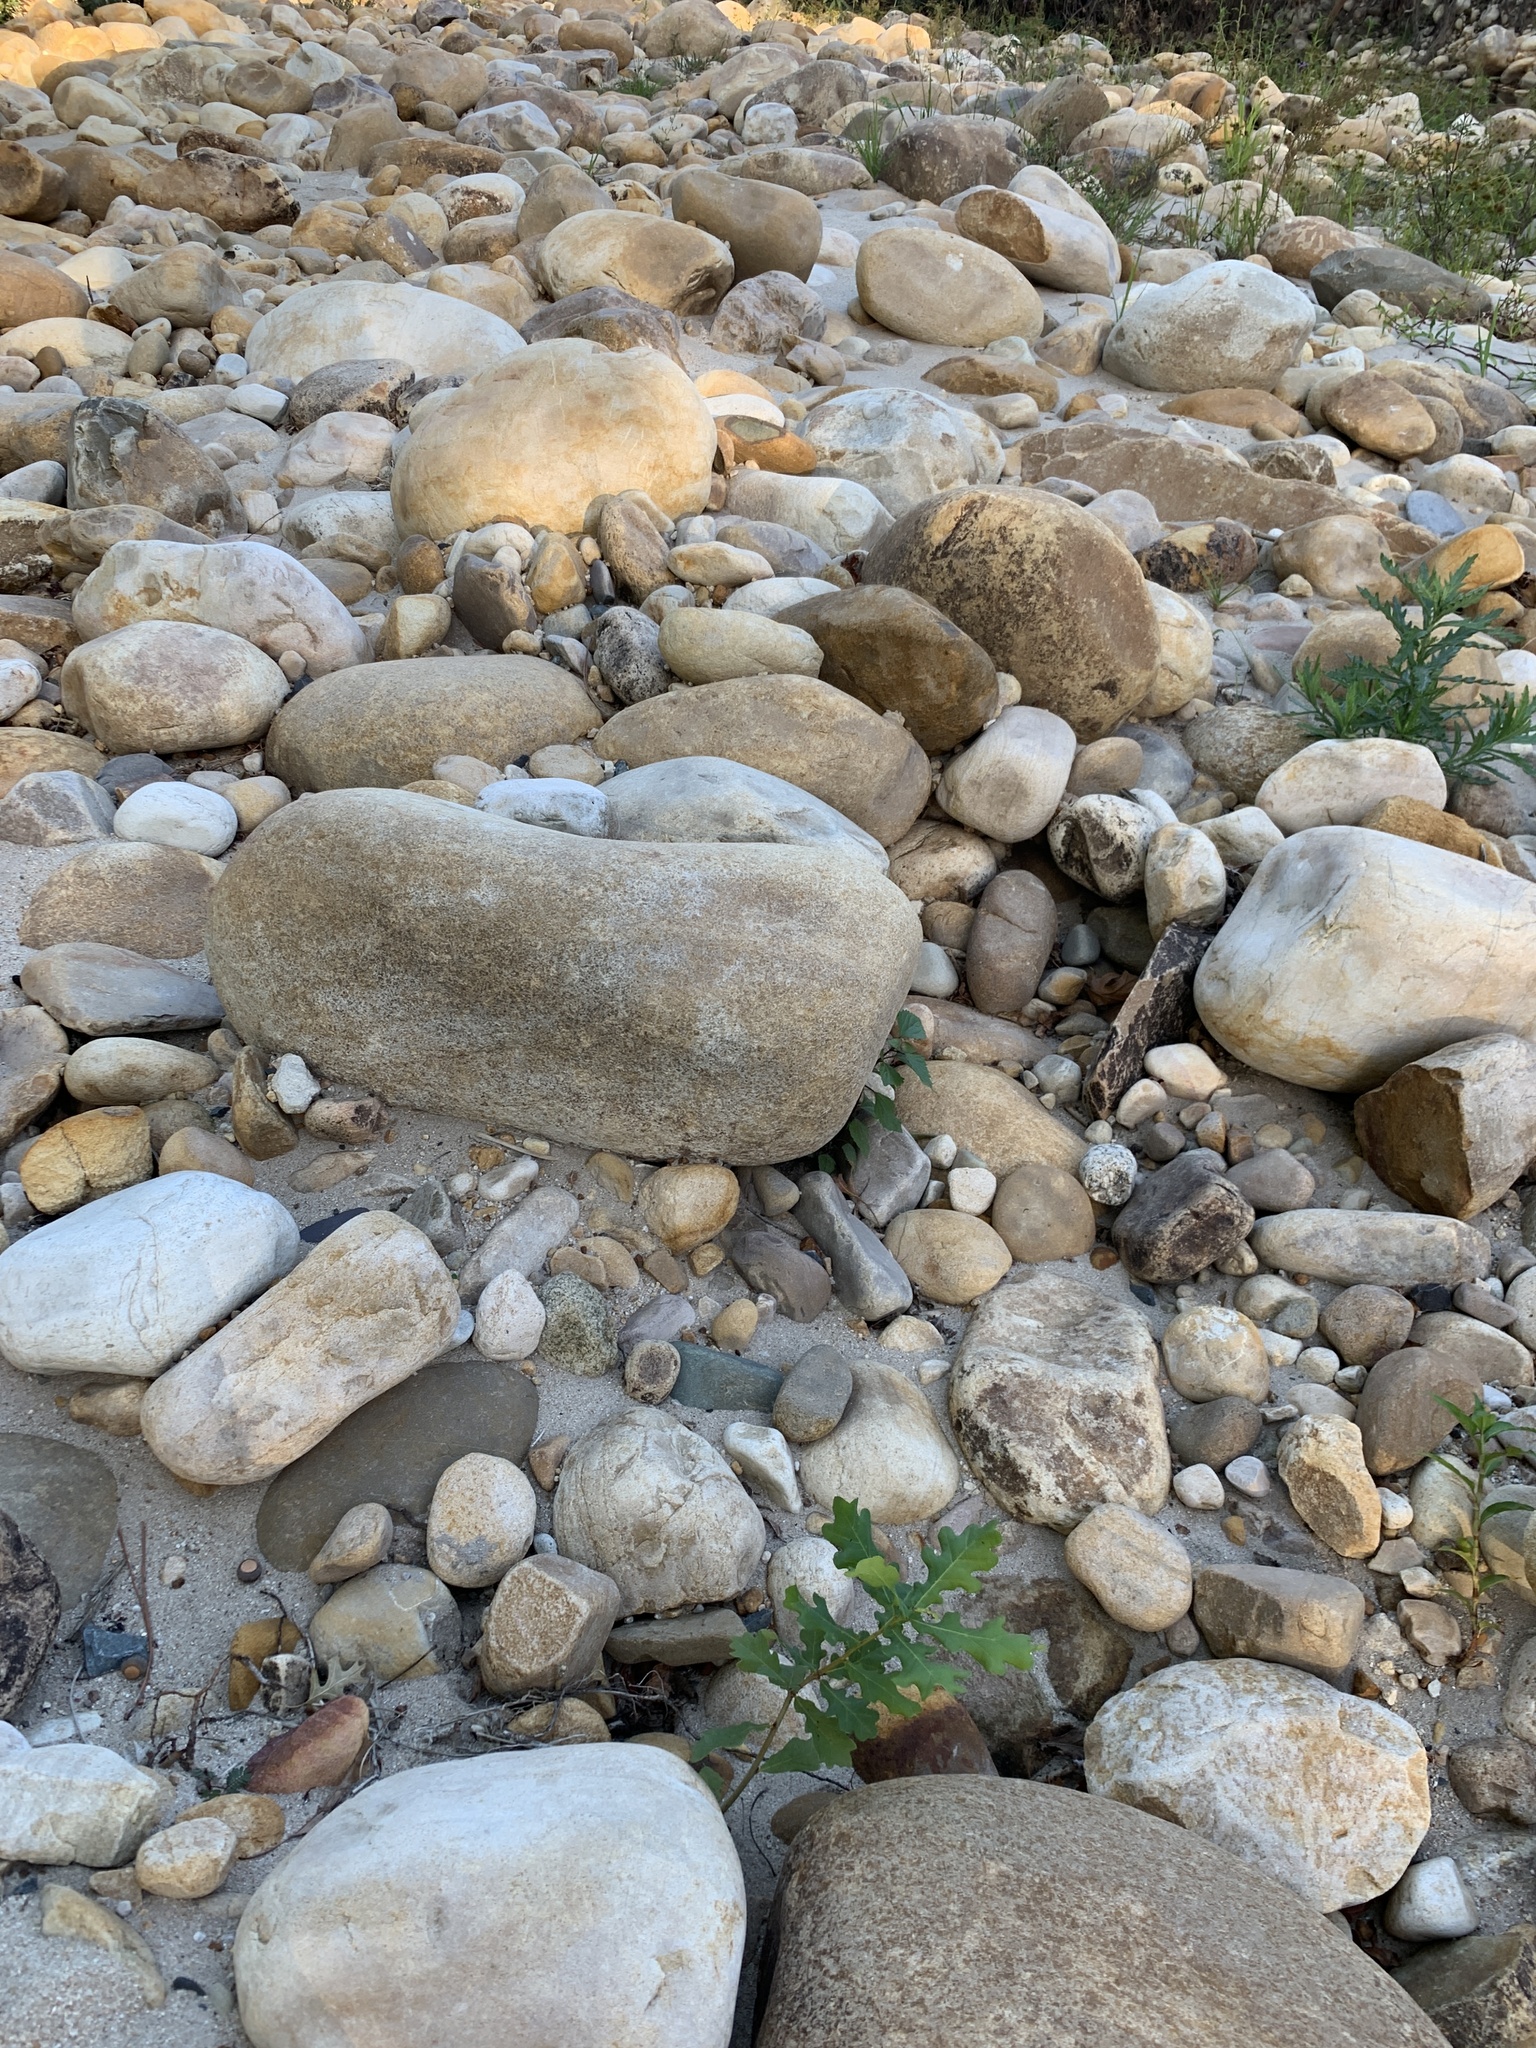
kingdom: Plantae
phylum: Tracheophyta
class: Magnoliopsida
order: Fagales
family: Fagaceae
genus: Quercus
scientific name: Quercus robur
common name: Pedunculate oak
